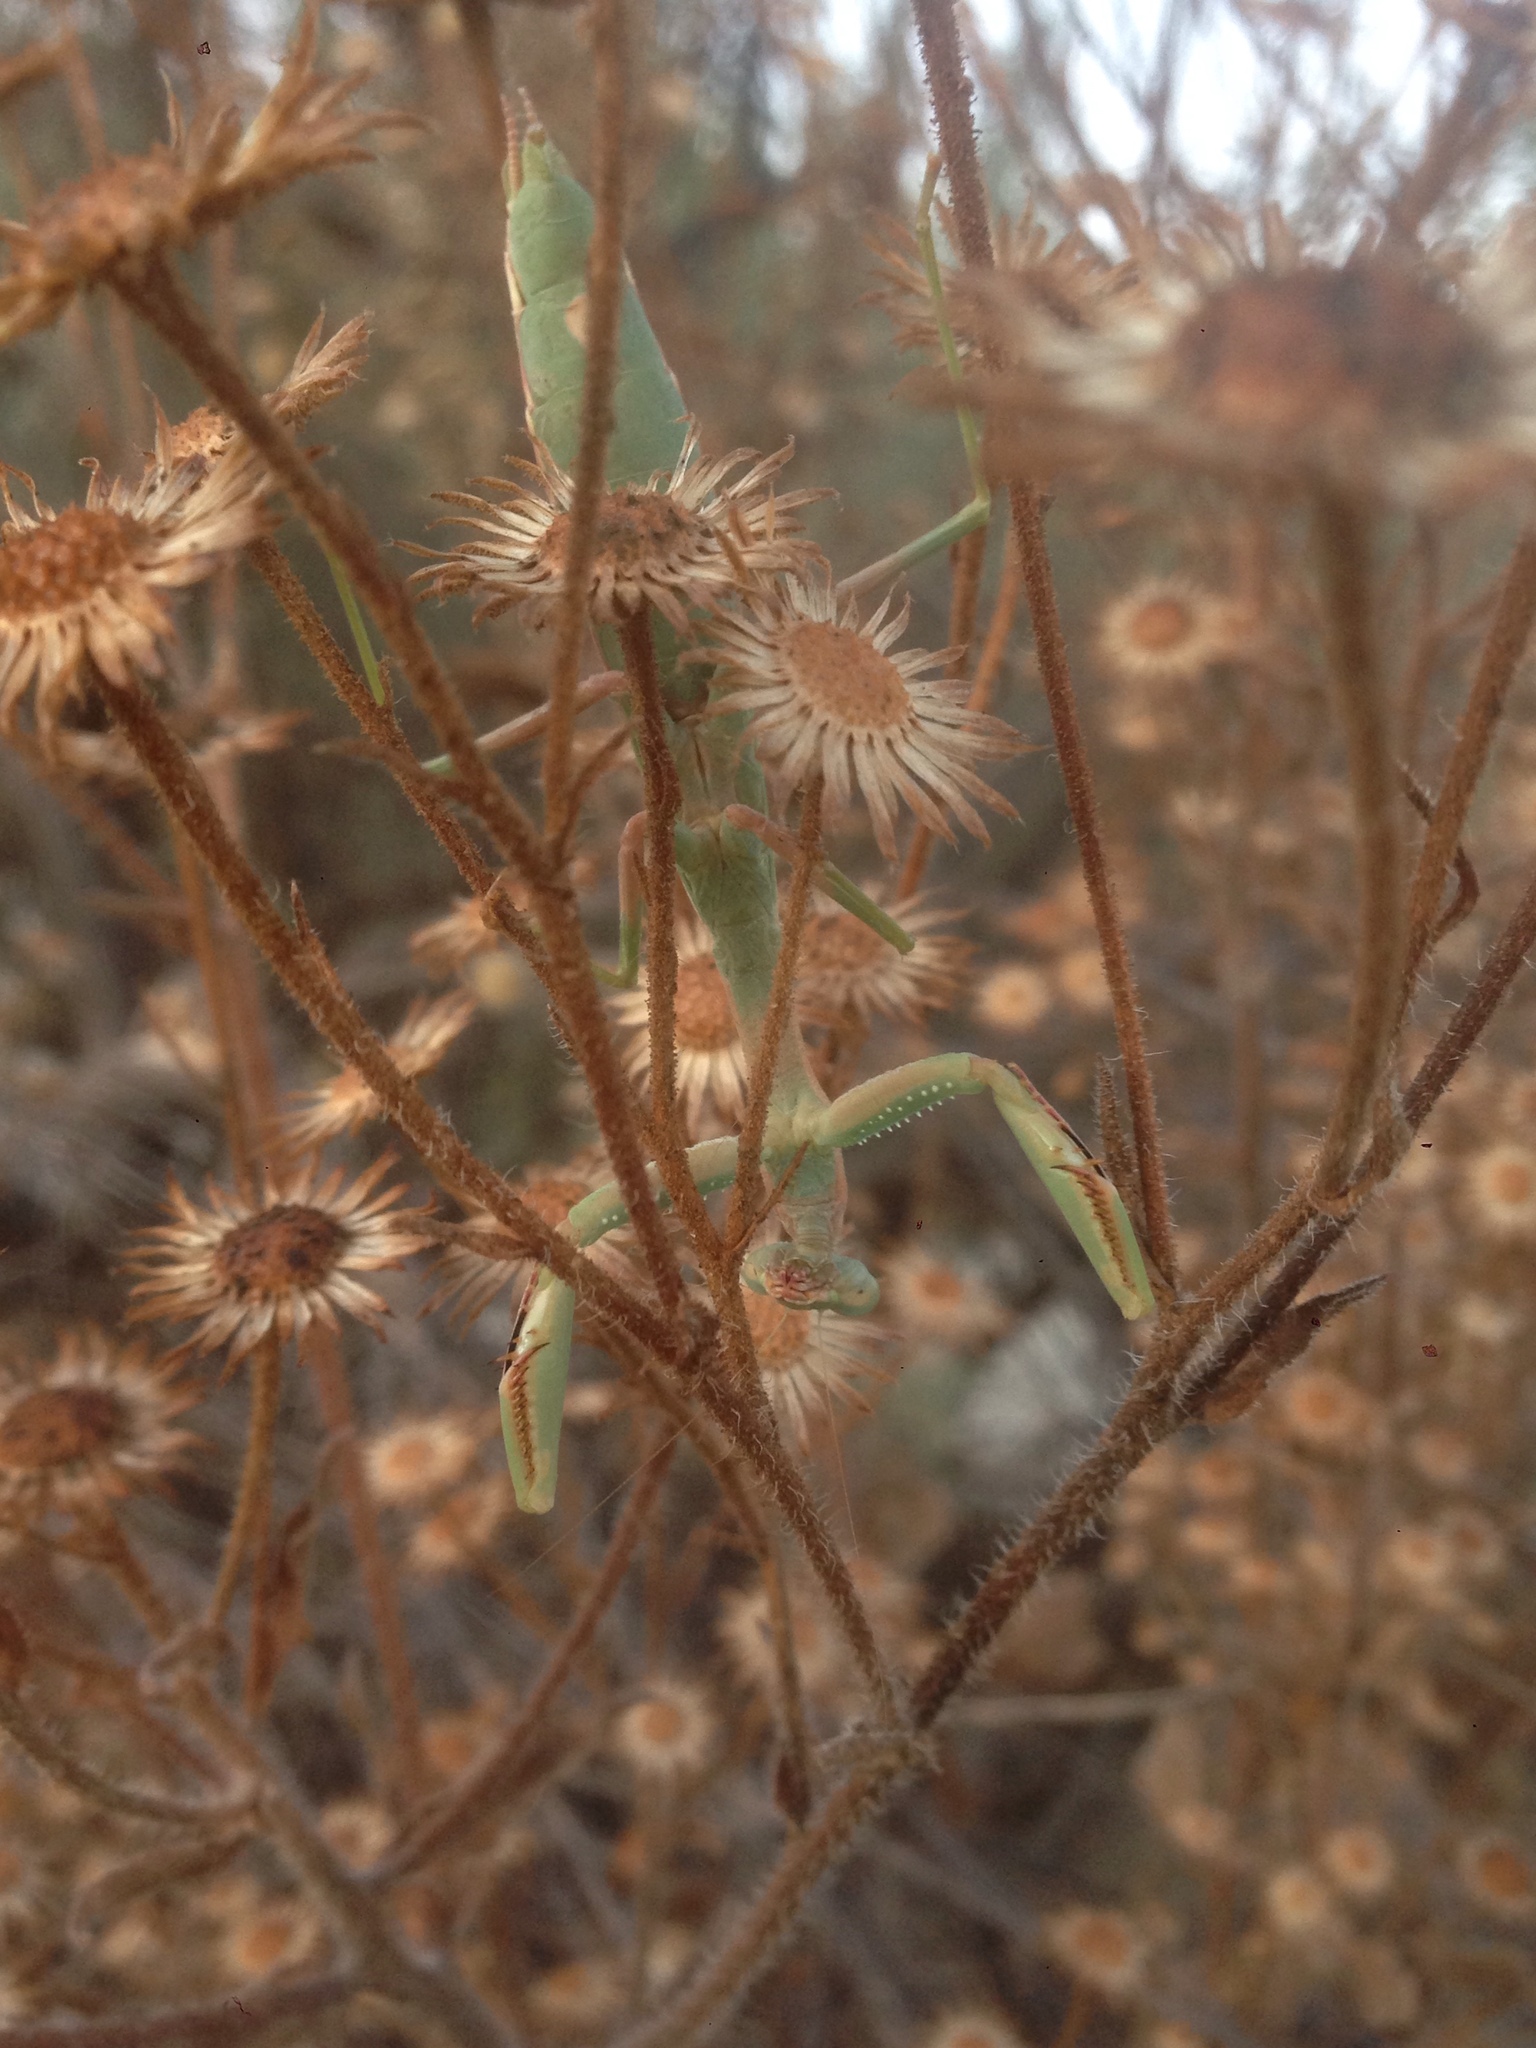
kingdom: Animalia
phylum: Arthropoda
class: Insecta
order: Mantodea
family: Eremiaphilidae
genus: Iris
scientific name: Iris oratoria
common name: Mediterranean mantis
